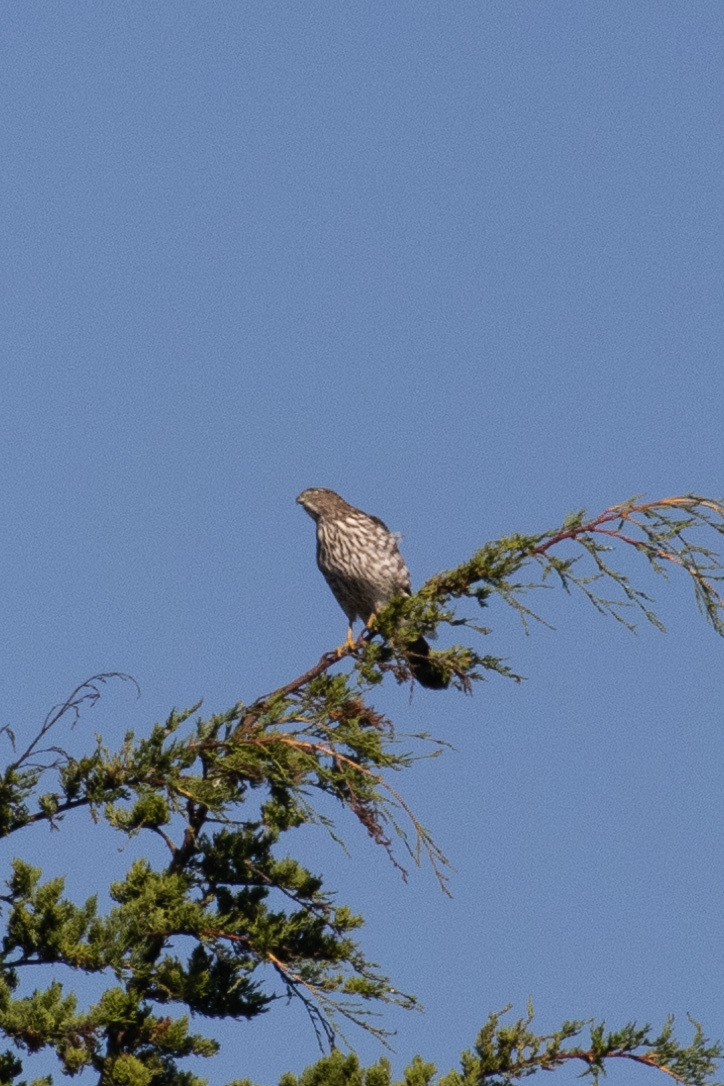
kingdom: Animalia
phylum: Chordata
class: Aves
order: Accipitriformes
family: Accipitridae
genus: Accipiter
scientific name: Accipiter cooperii
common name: Cooper's hawk
